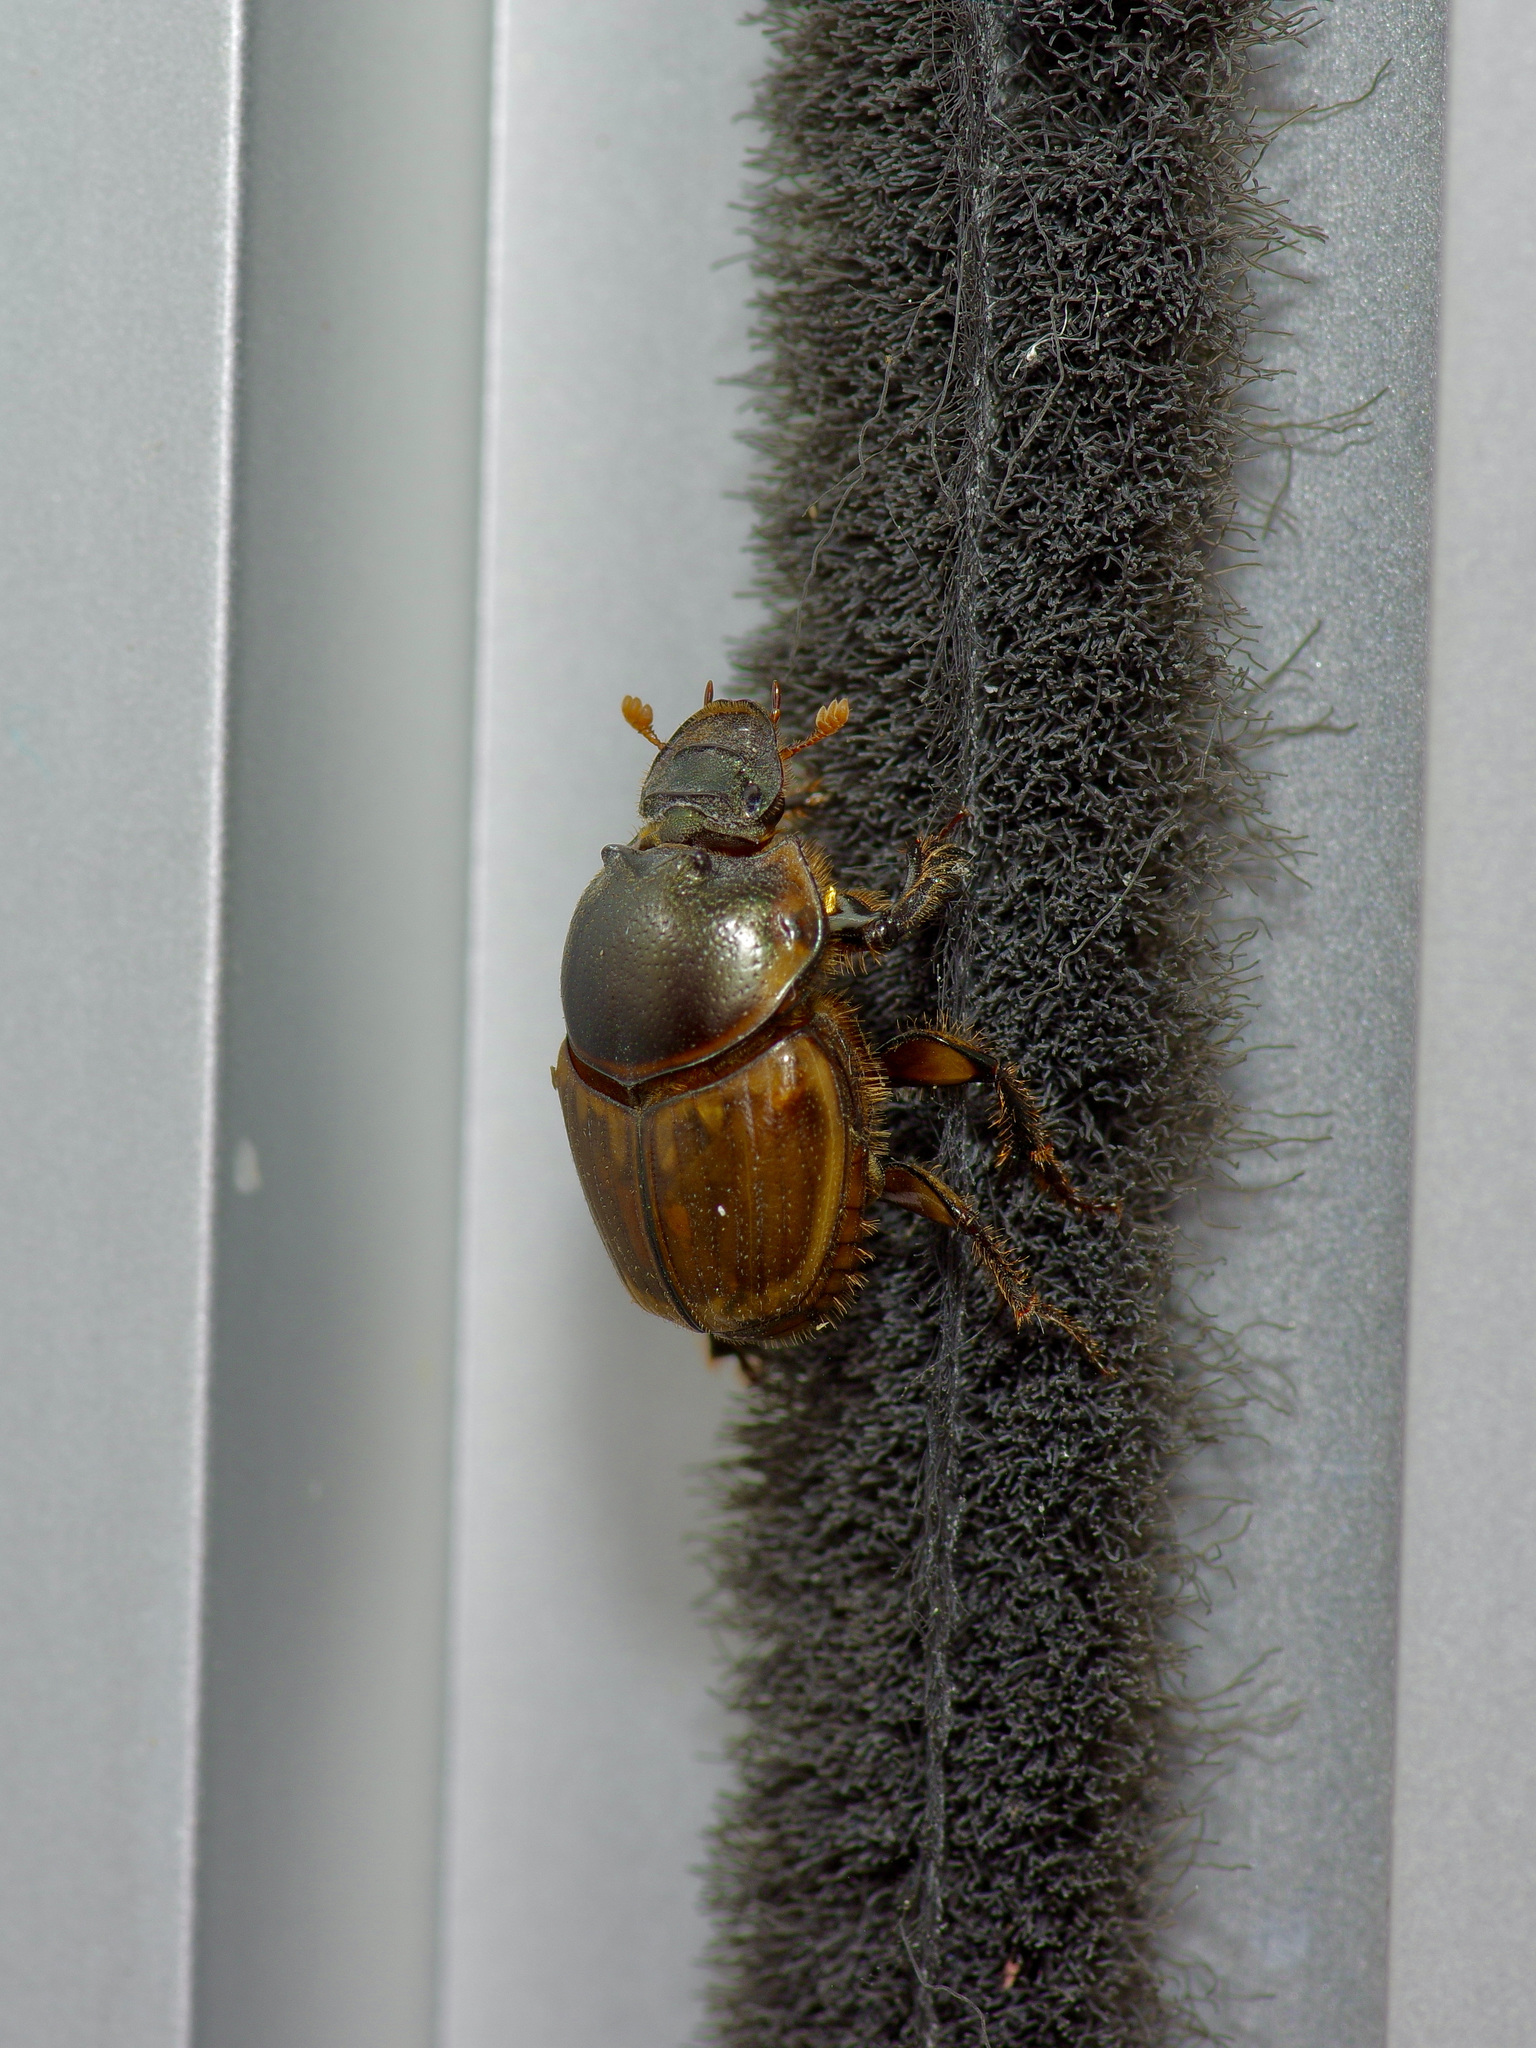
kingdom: Animalia
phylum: Arthropoda
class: Insecta
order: Coleoptera
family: Scarabaeidae
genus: Digitonthophagus
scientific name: Digitonthophagus gazella
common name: Brown dung beetle
